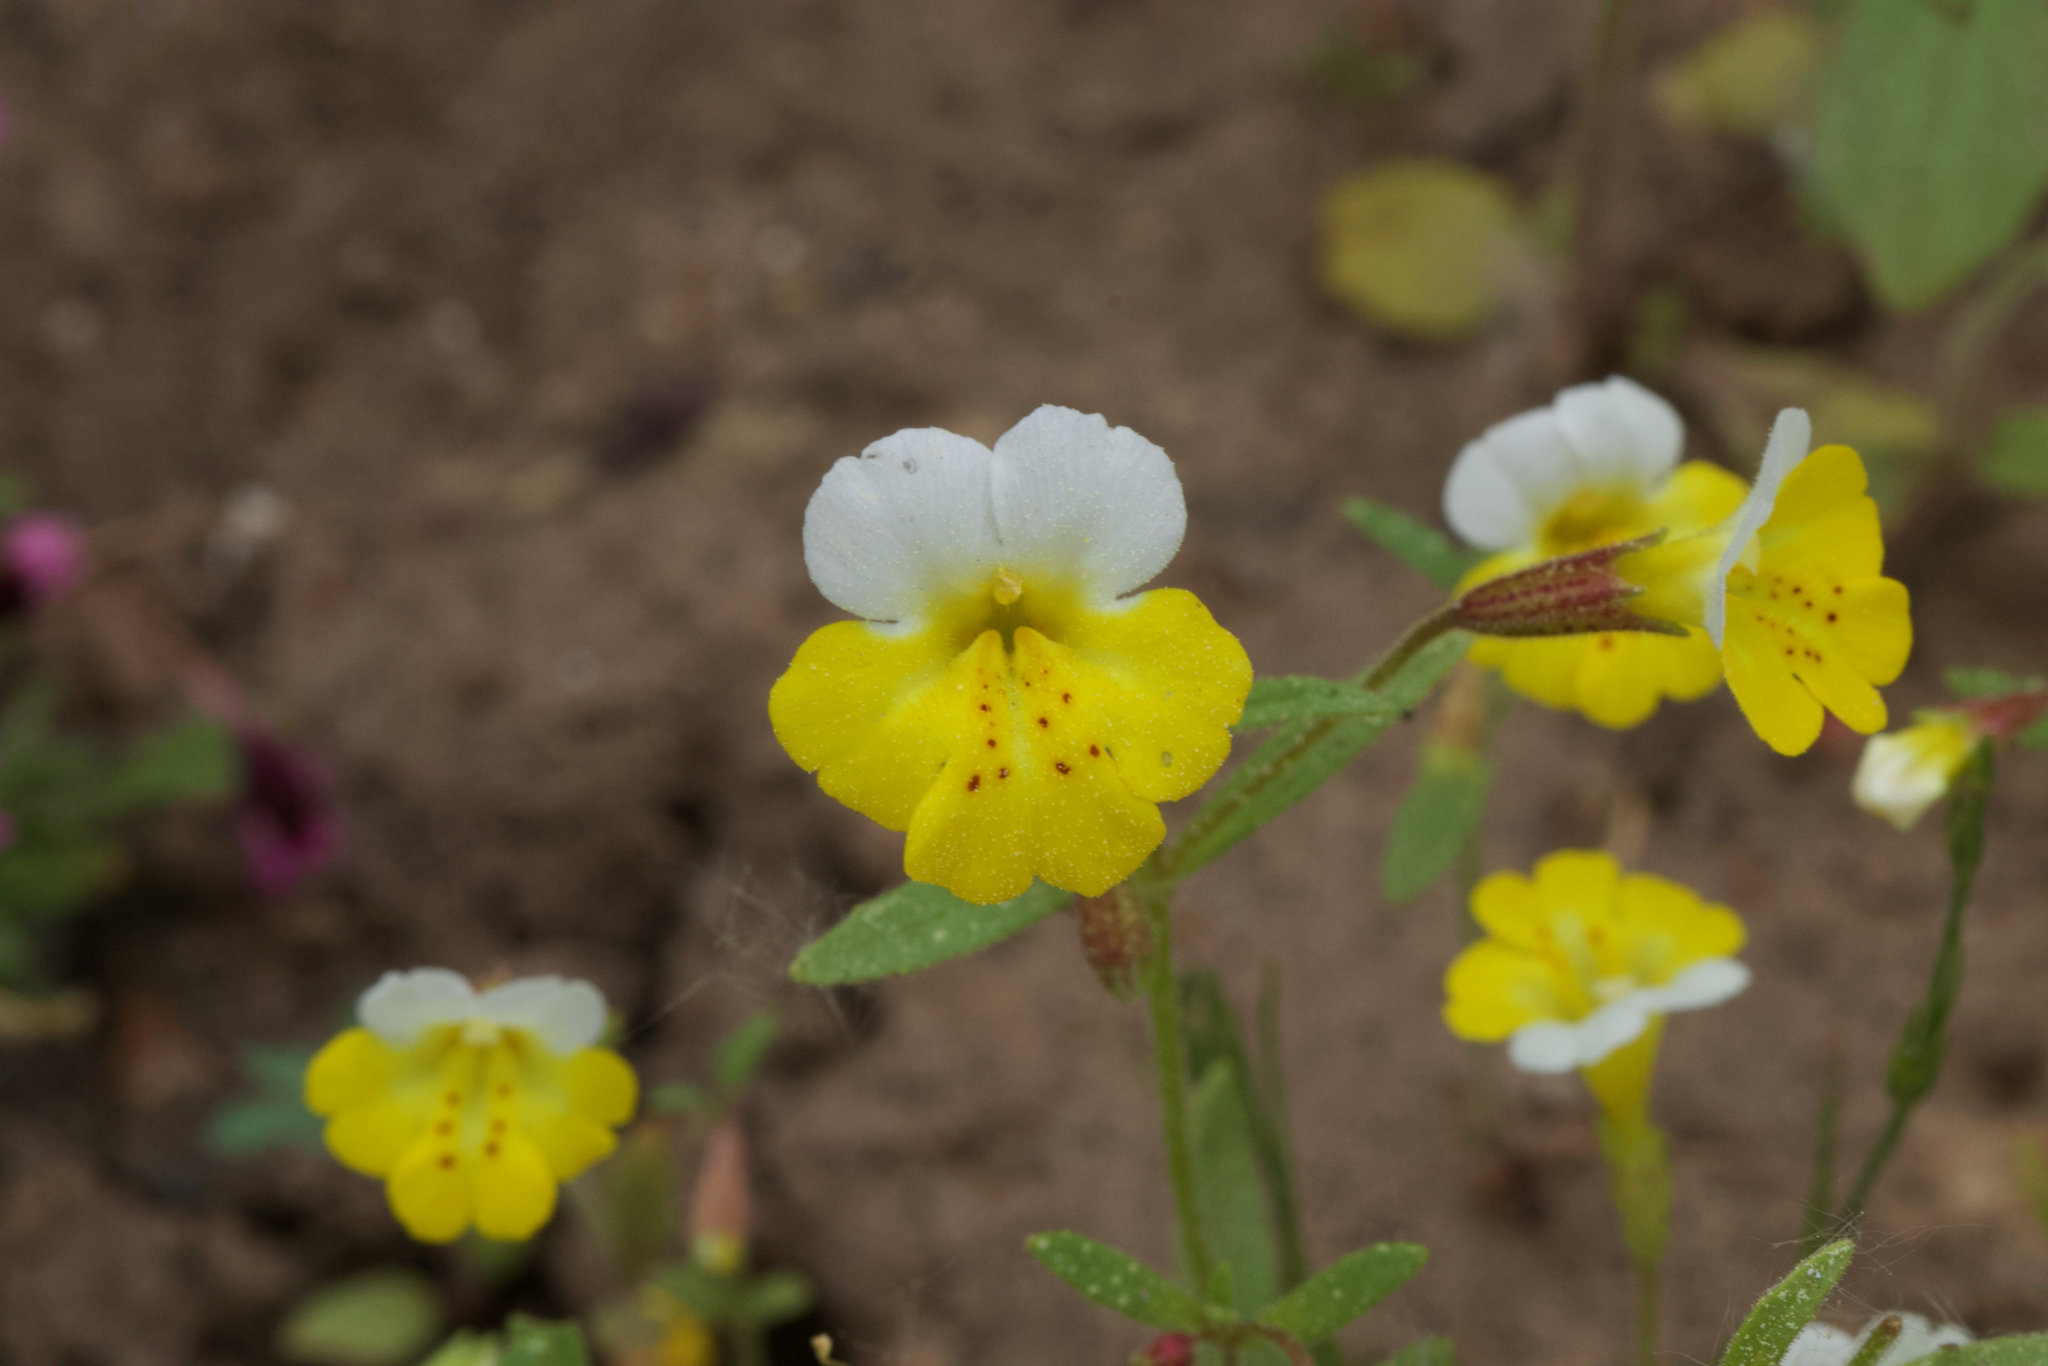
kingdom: Plantae
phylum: Tracheophyta
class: Magnoliopsida
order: Lamiales
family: Phrymaceae
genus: Erythranthe
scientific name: Erythranthe bicolor
